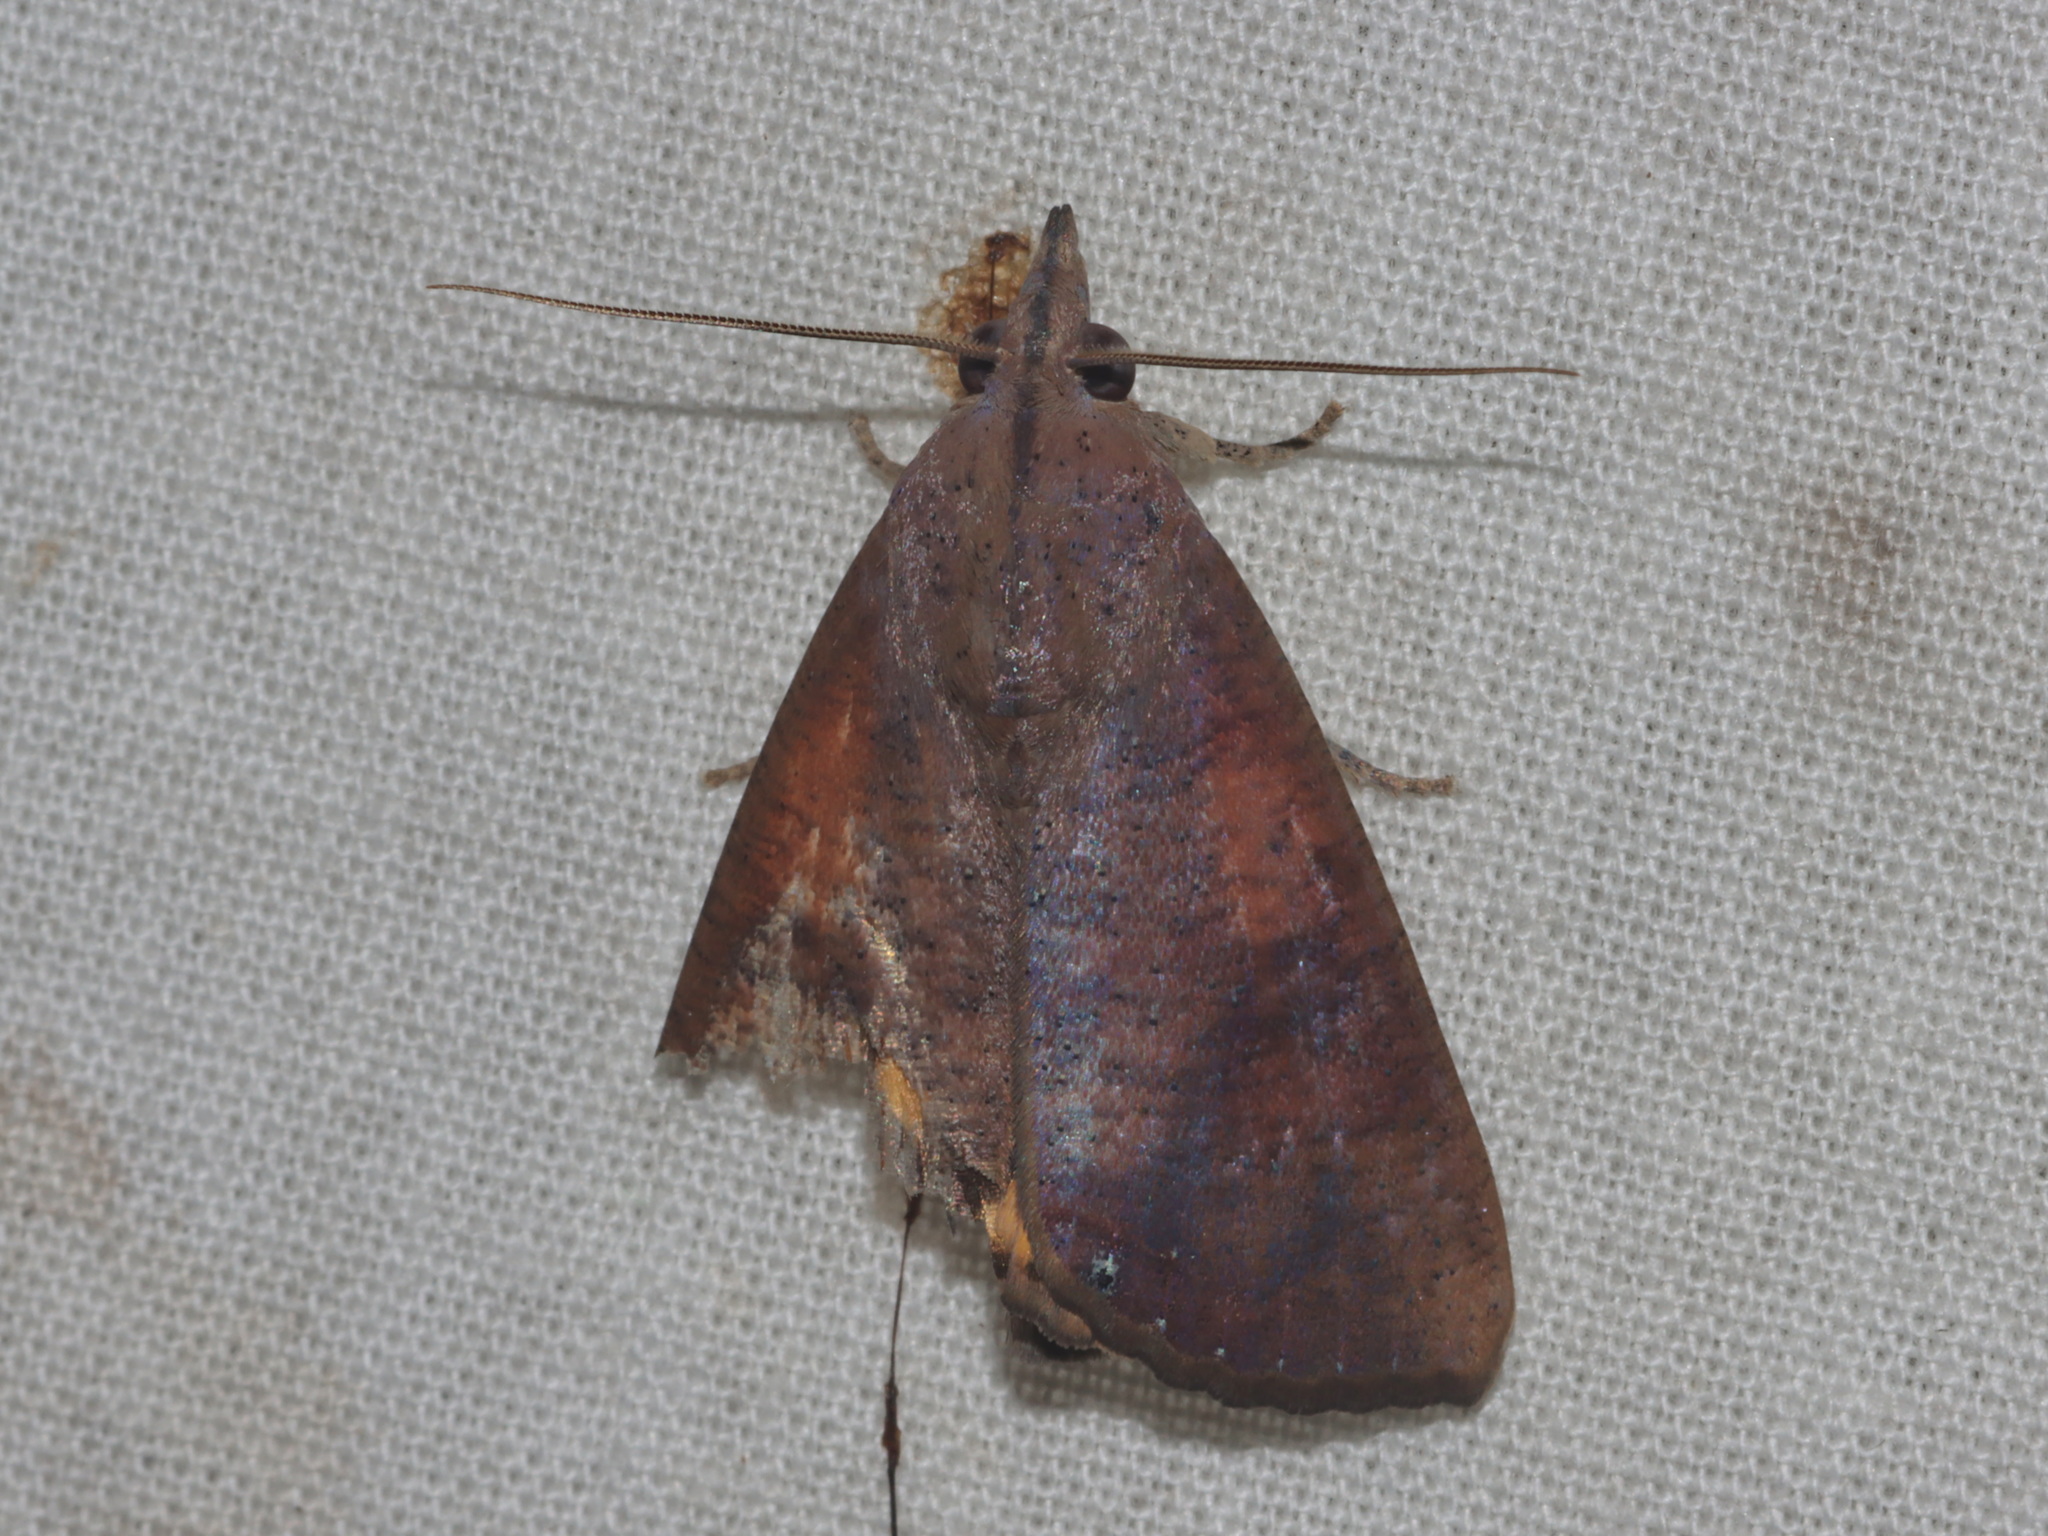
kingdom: Animalia
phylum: Arthropoda
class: Insecta
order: Lepidoptera
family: Erebidae
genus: Hypocala
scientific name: Hypocala violacea
